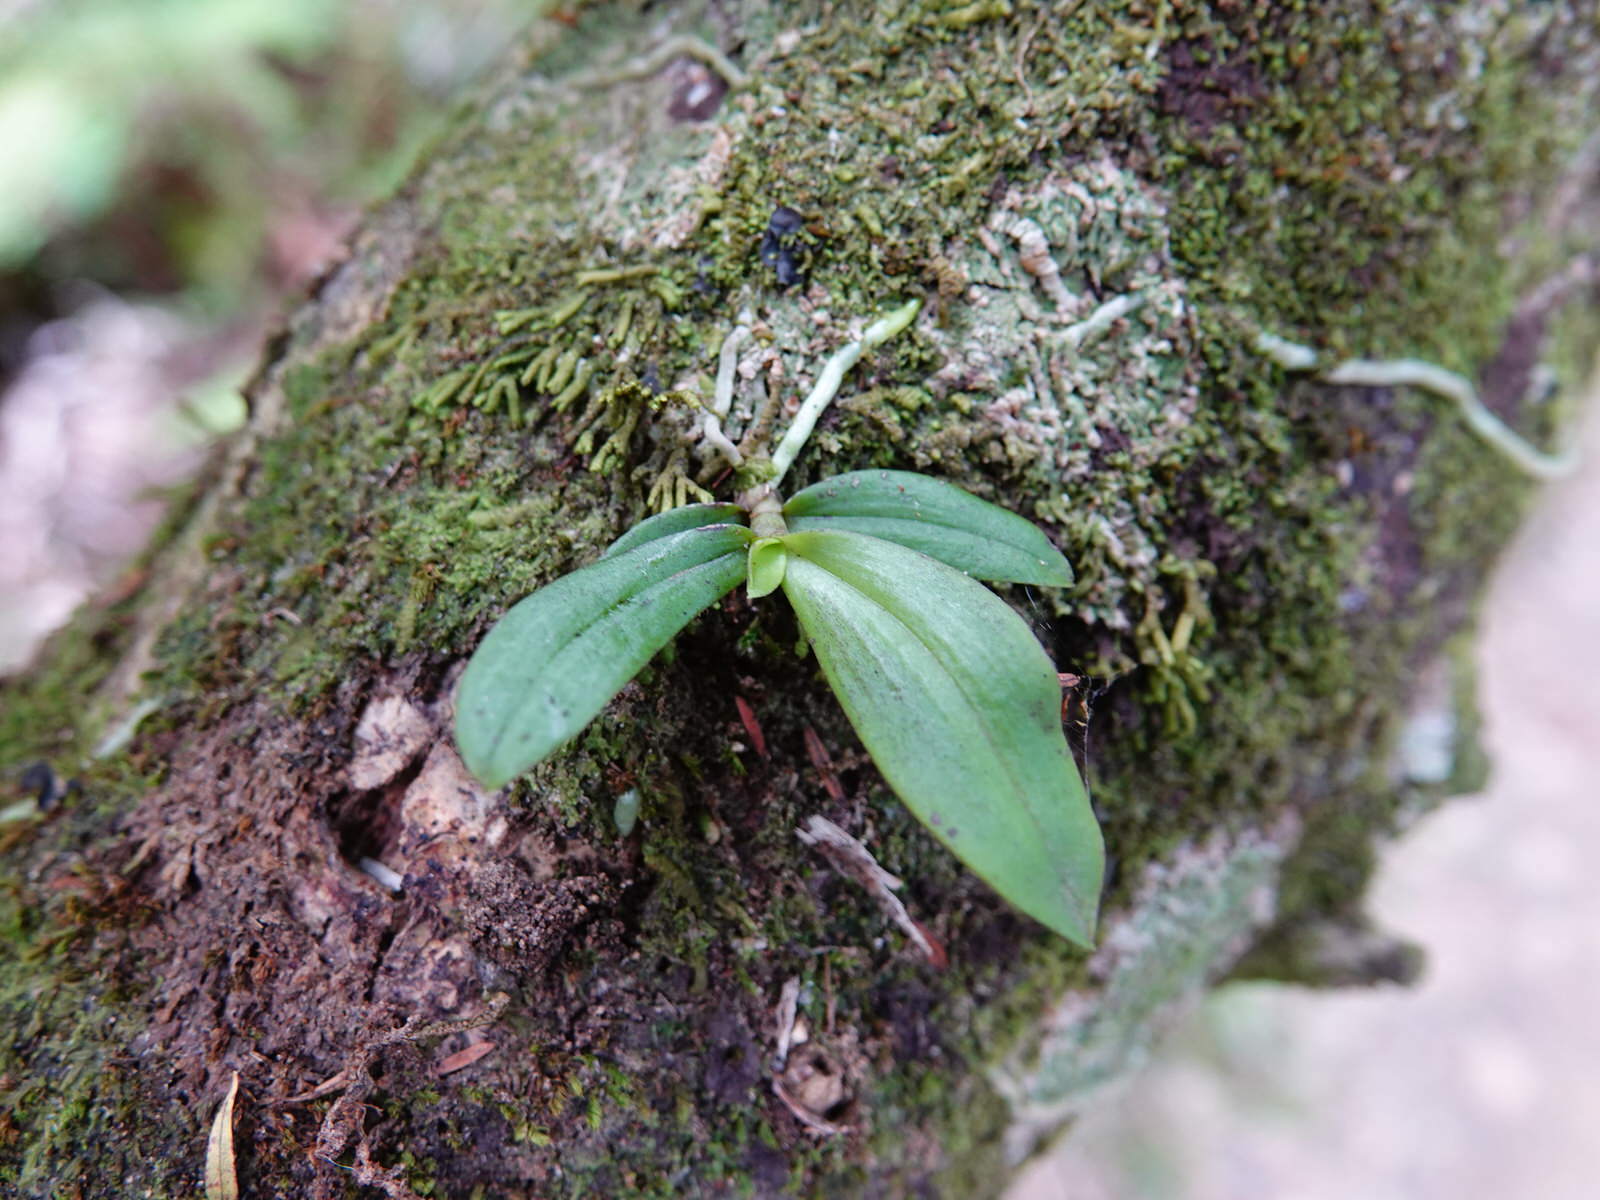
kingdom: Plantae
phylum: Tracheophyta
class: Liliopsida
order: Asparagales
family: Orchidaceae
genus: Drymoanthus
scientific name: Drymoanthus adversus
